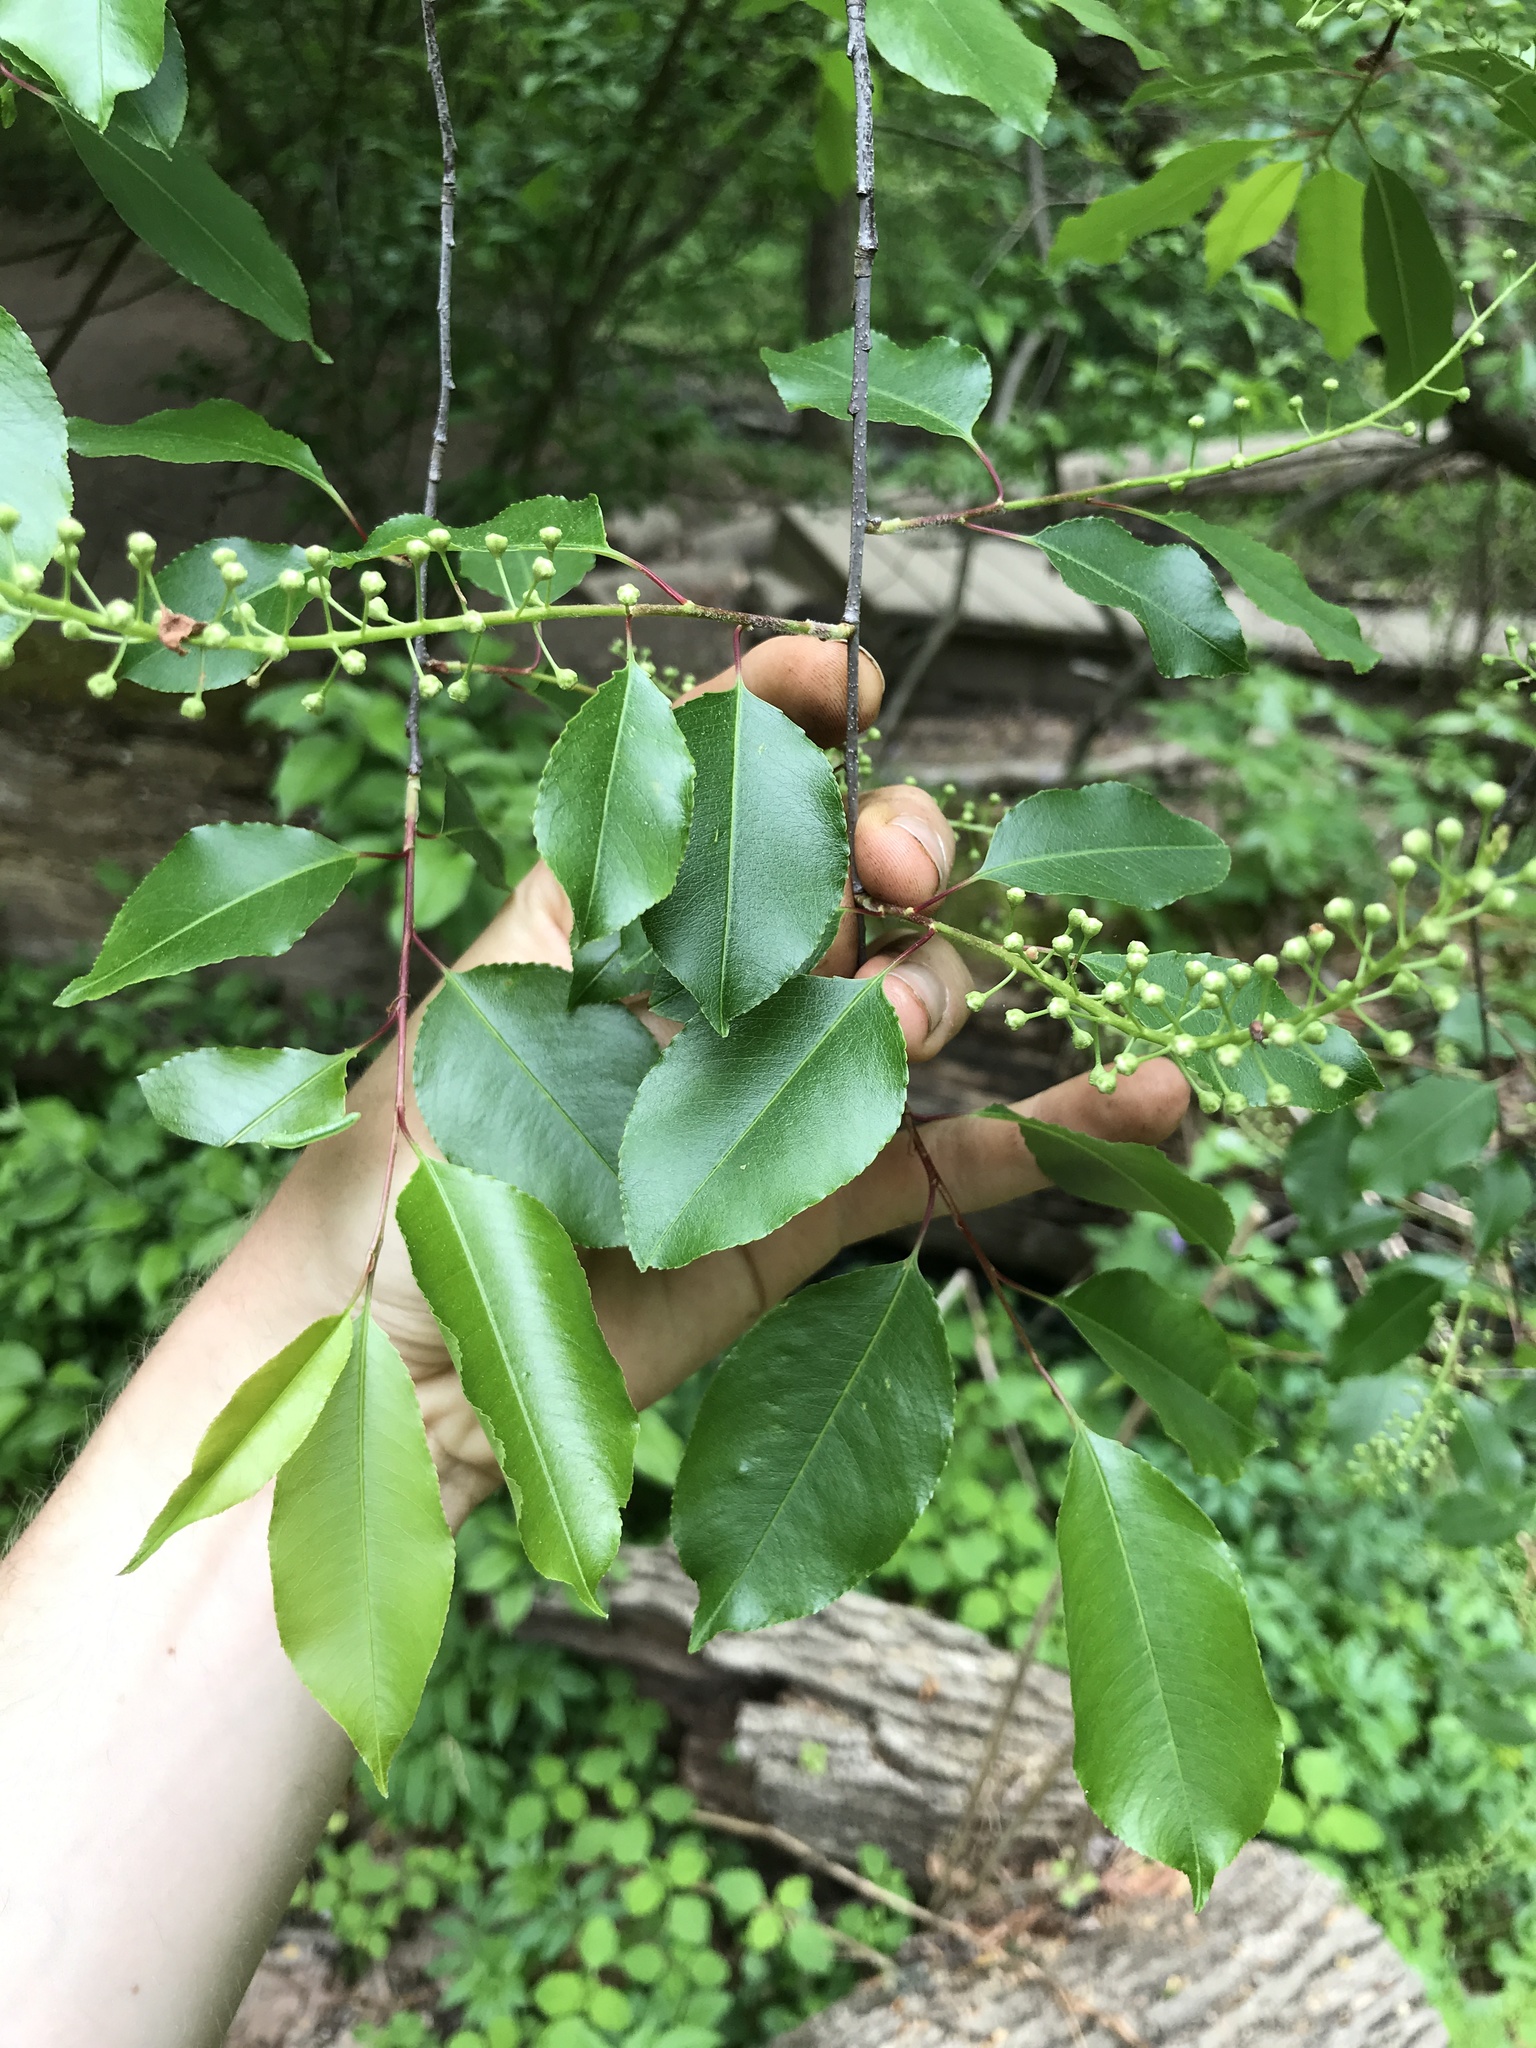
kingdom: Plantae
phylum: Tracheophyta
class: Magnoliopsida
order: Rosales
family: Rosaceae
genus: Prunus
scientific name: Prunus serotina
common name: Black cherry
